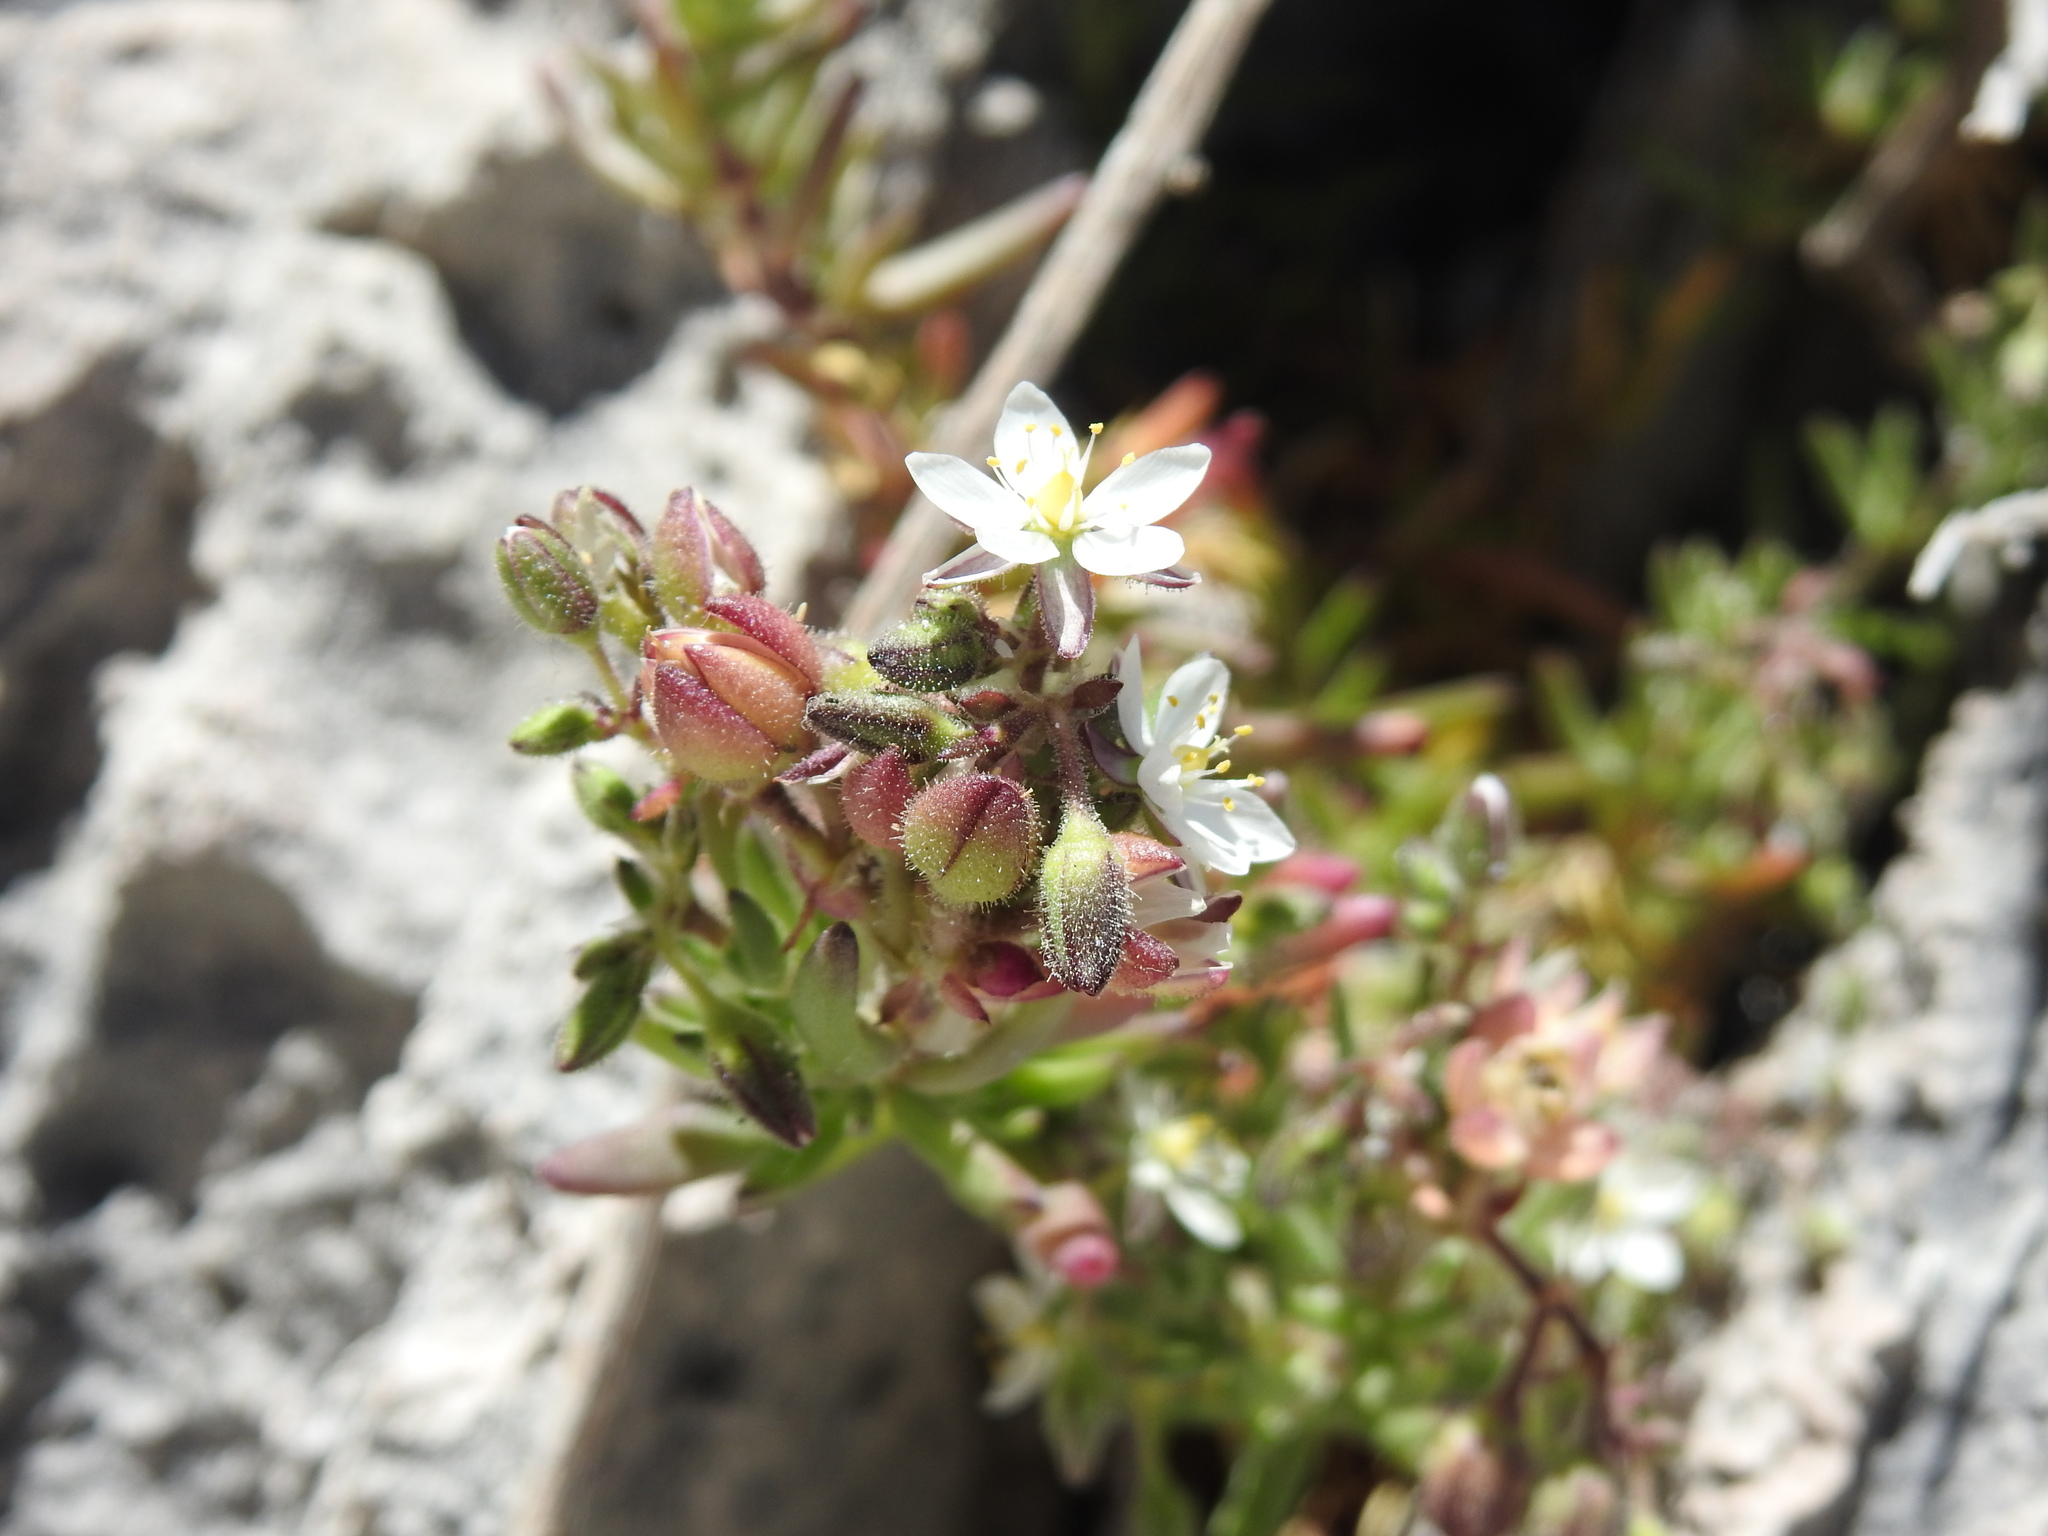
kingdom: Plantae
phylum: Tracheophyta
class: Magnoliopsida
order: Caryophyllales
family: Caryophyllaceae
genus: Spergularia
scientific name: Spergularia media
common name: Greater sea-spurrey
